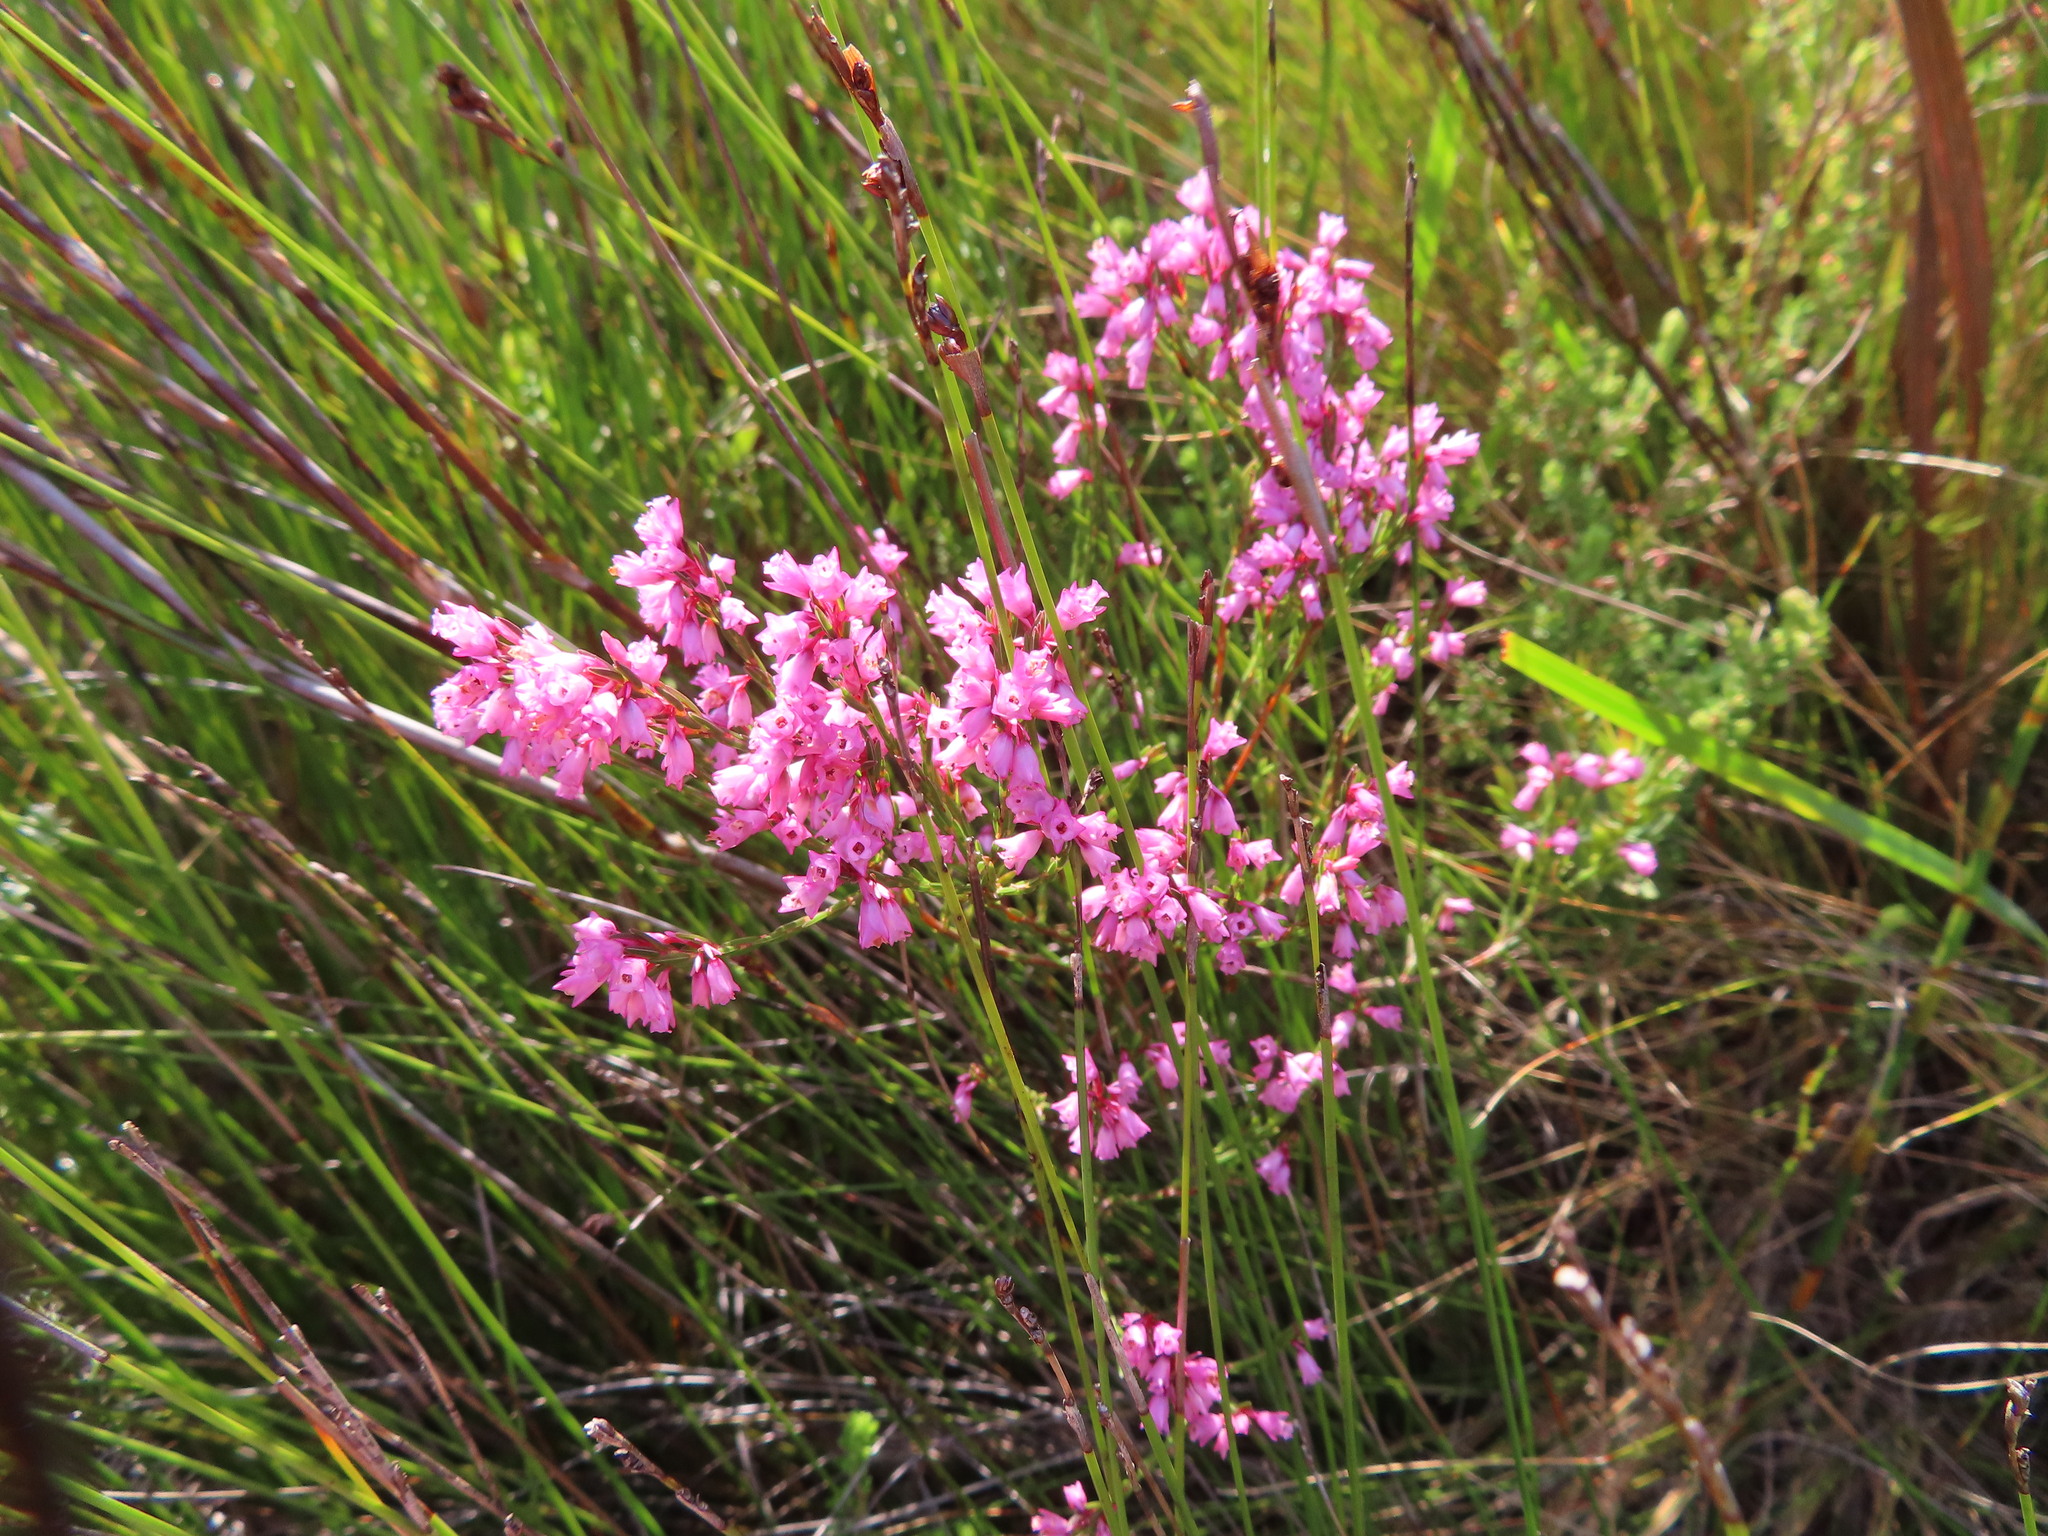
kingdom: Plantae
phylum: Tracheophyta
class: Magnoliopsida
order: Ericales
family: Ericaceae
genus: Erica
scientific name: Erica tenuifolia
